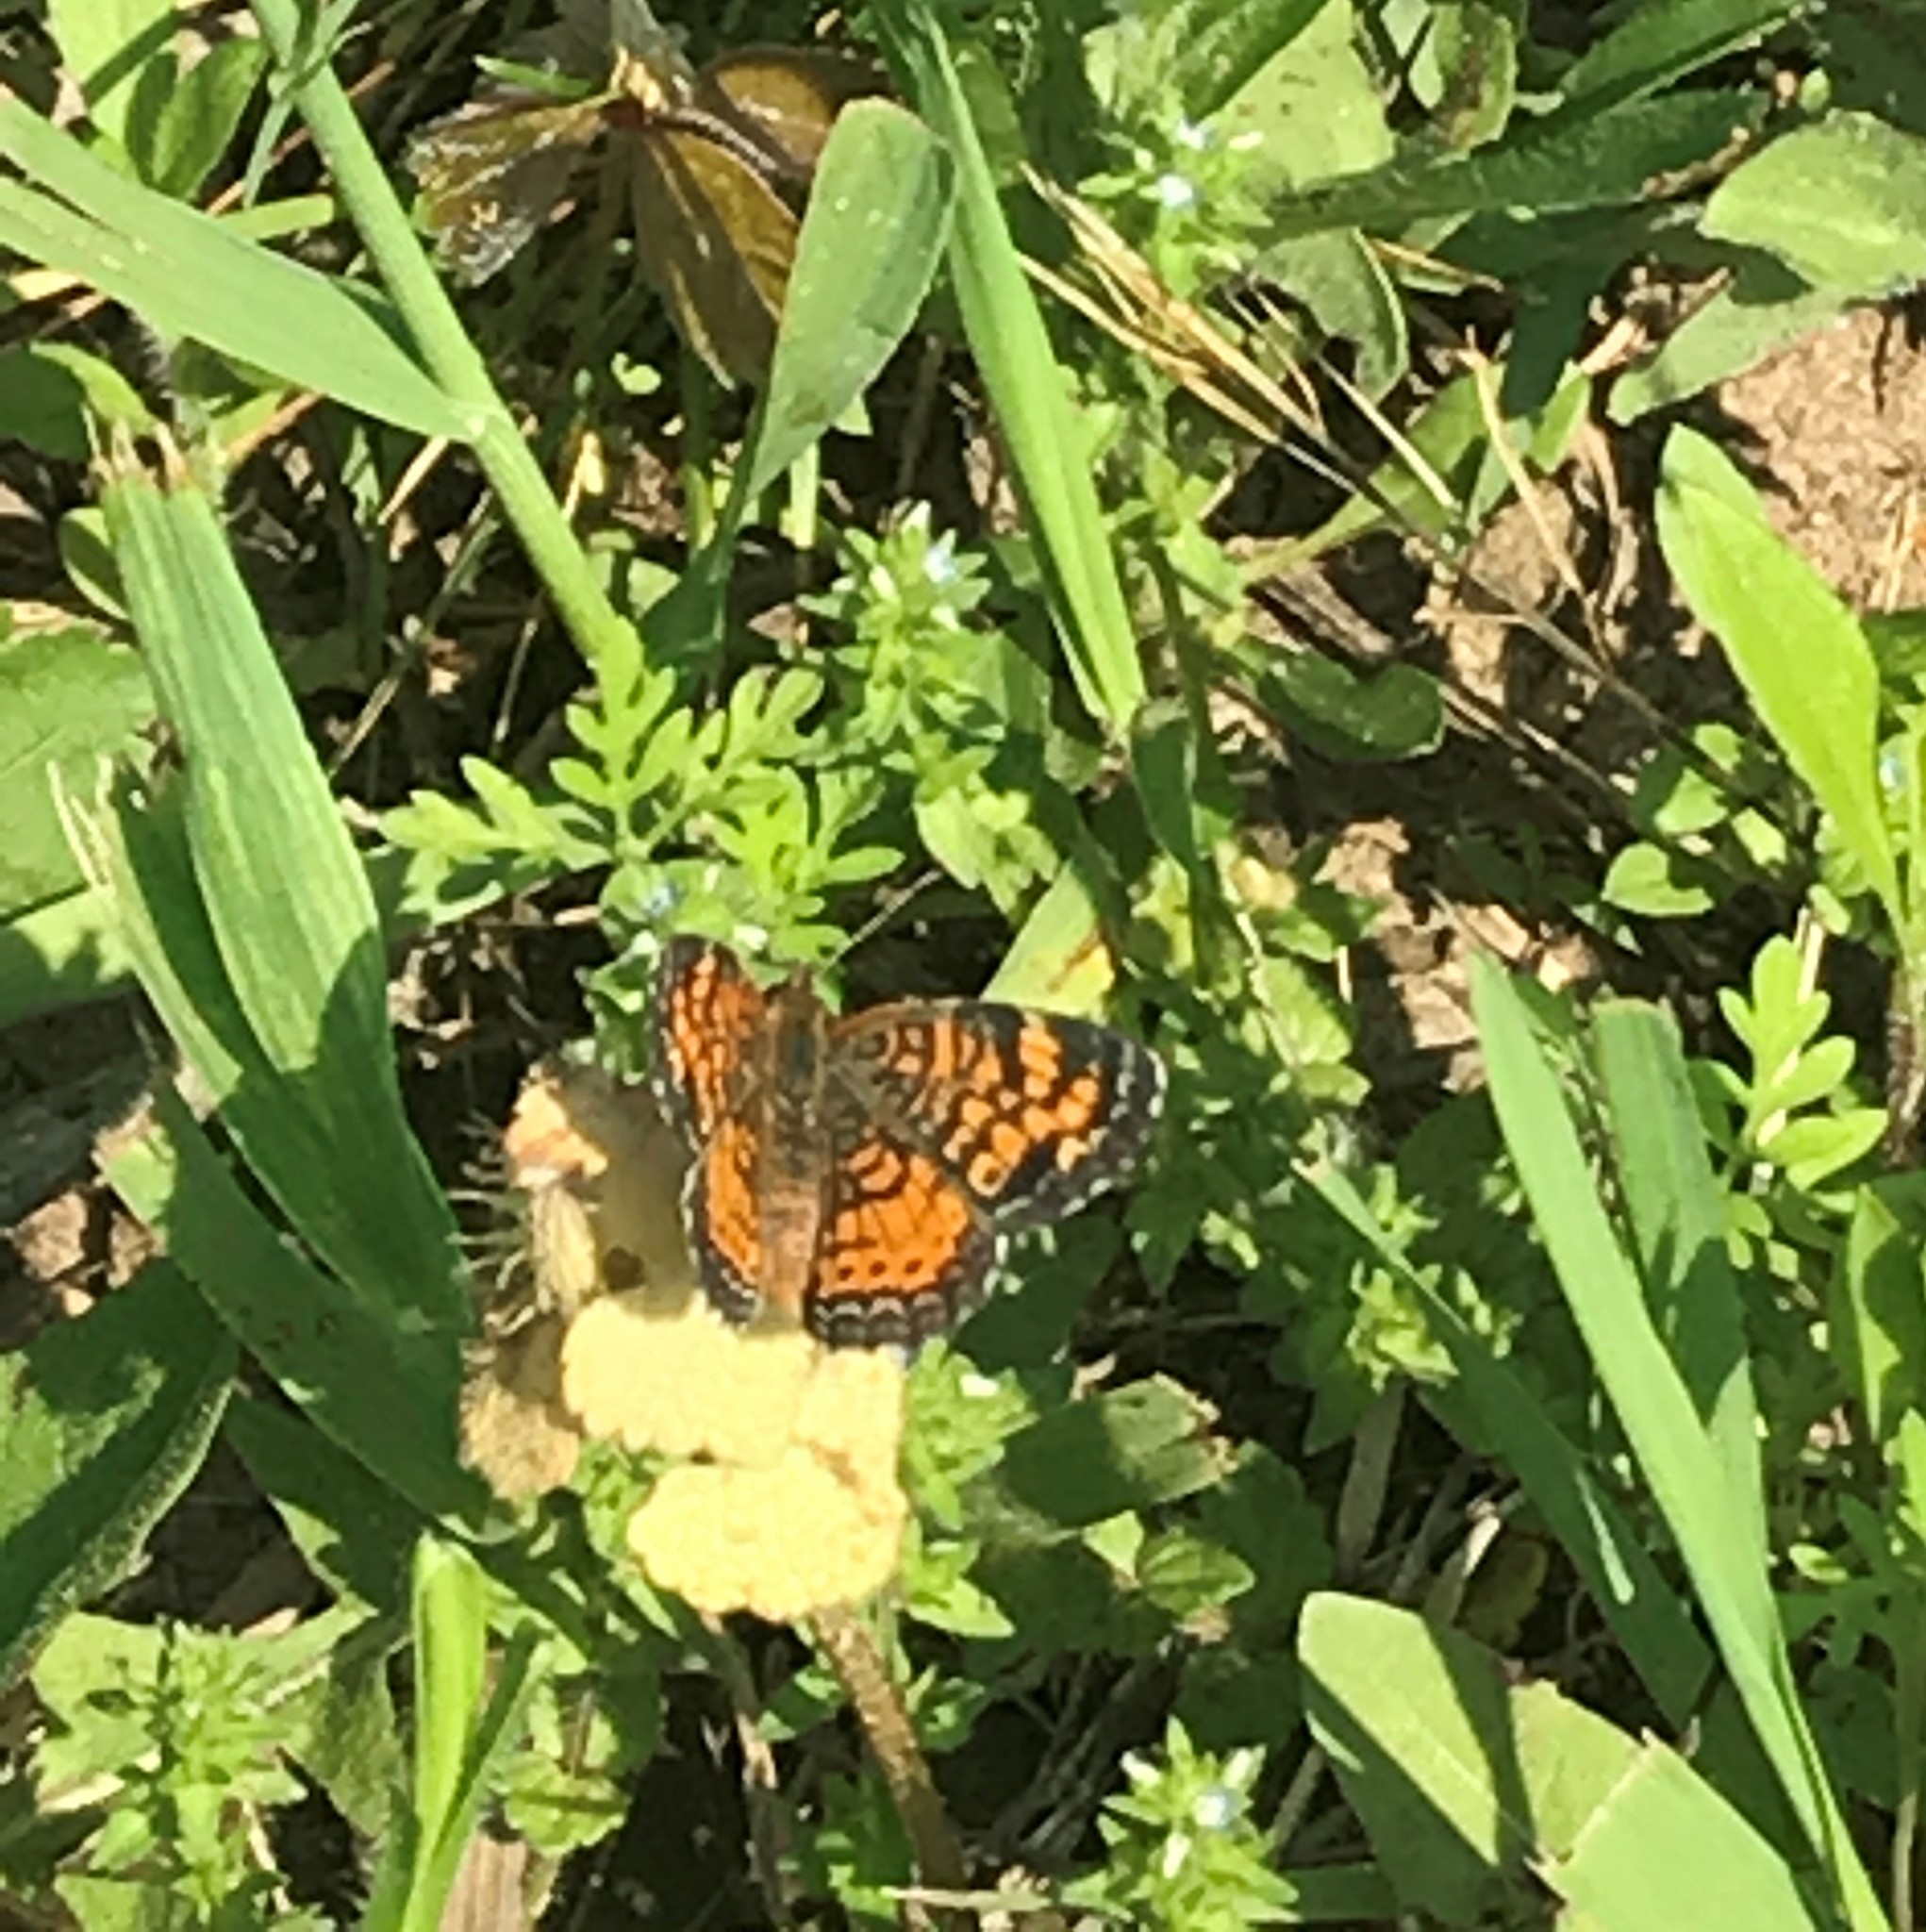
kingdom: Animalia
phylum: Arthropoda
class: Insecta
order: Lepidoptera
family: Nymphalidae
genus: Phyciodes
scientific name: Phyciodes tharos
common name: Pearl crescent
